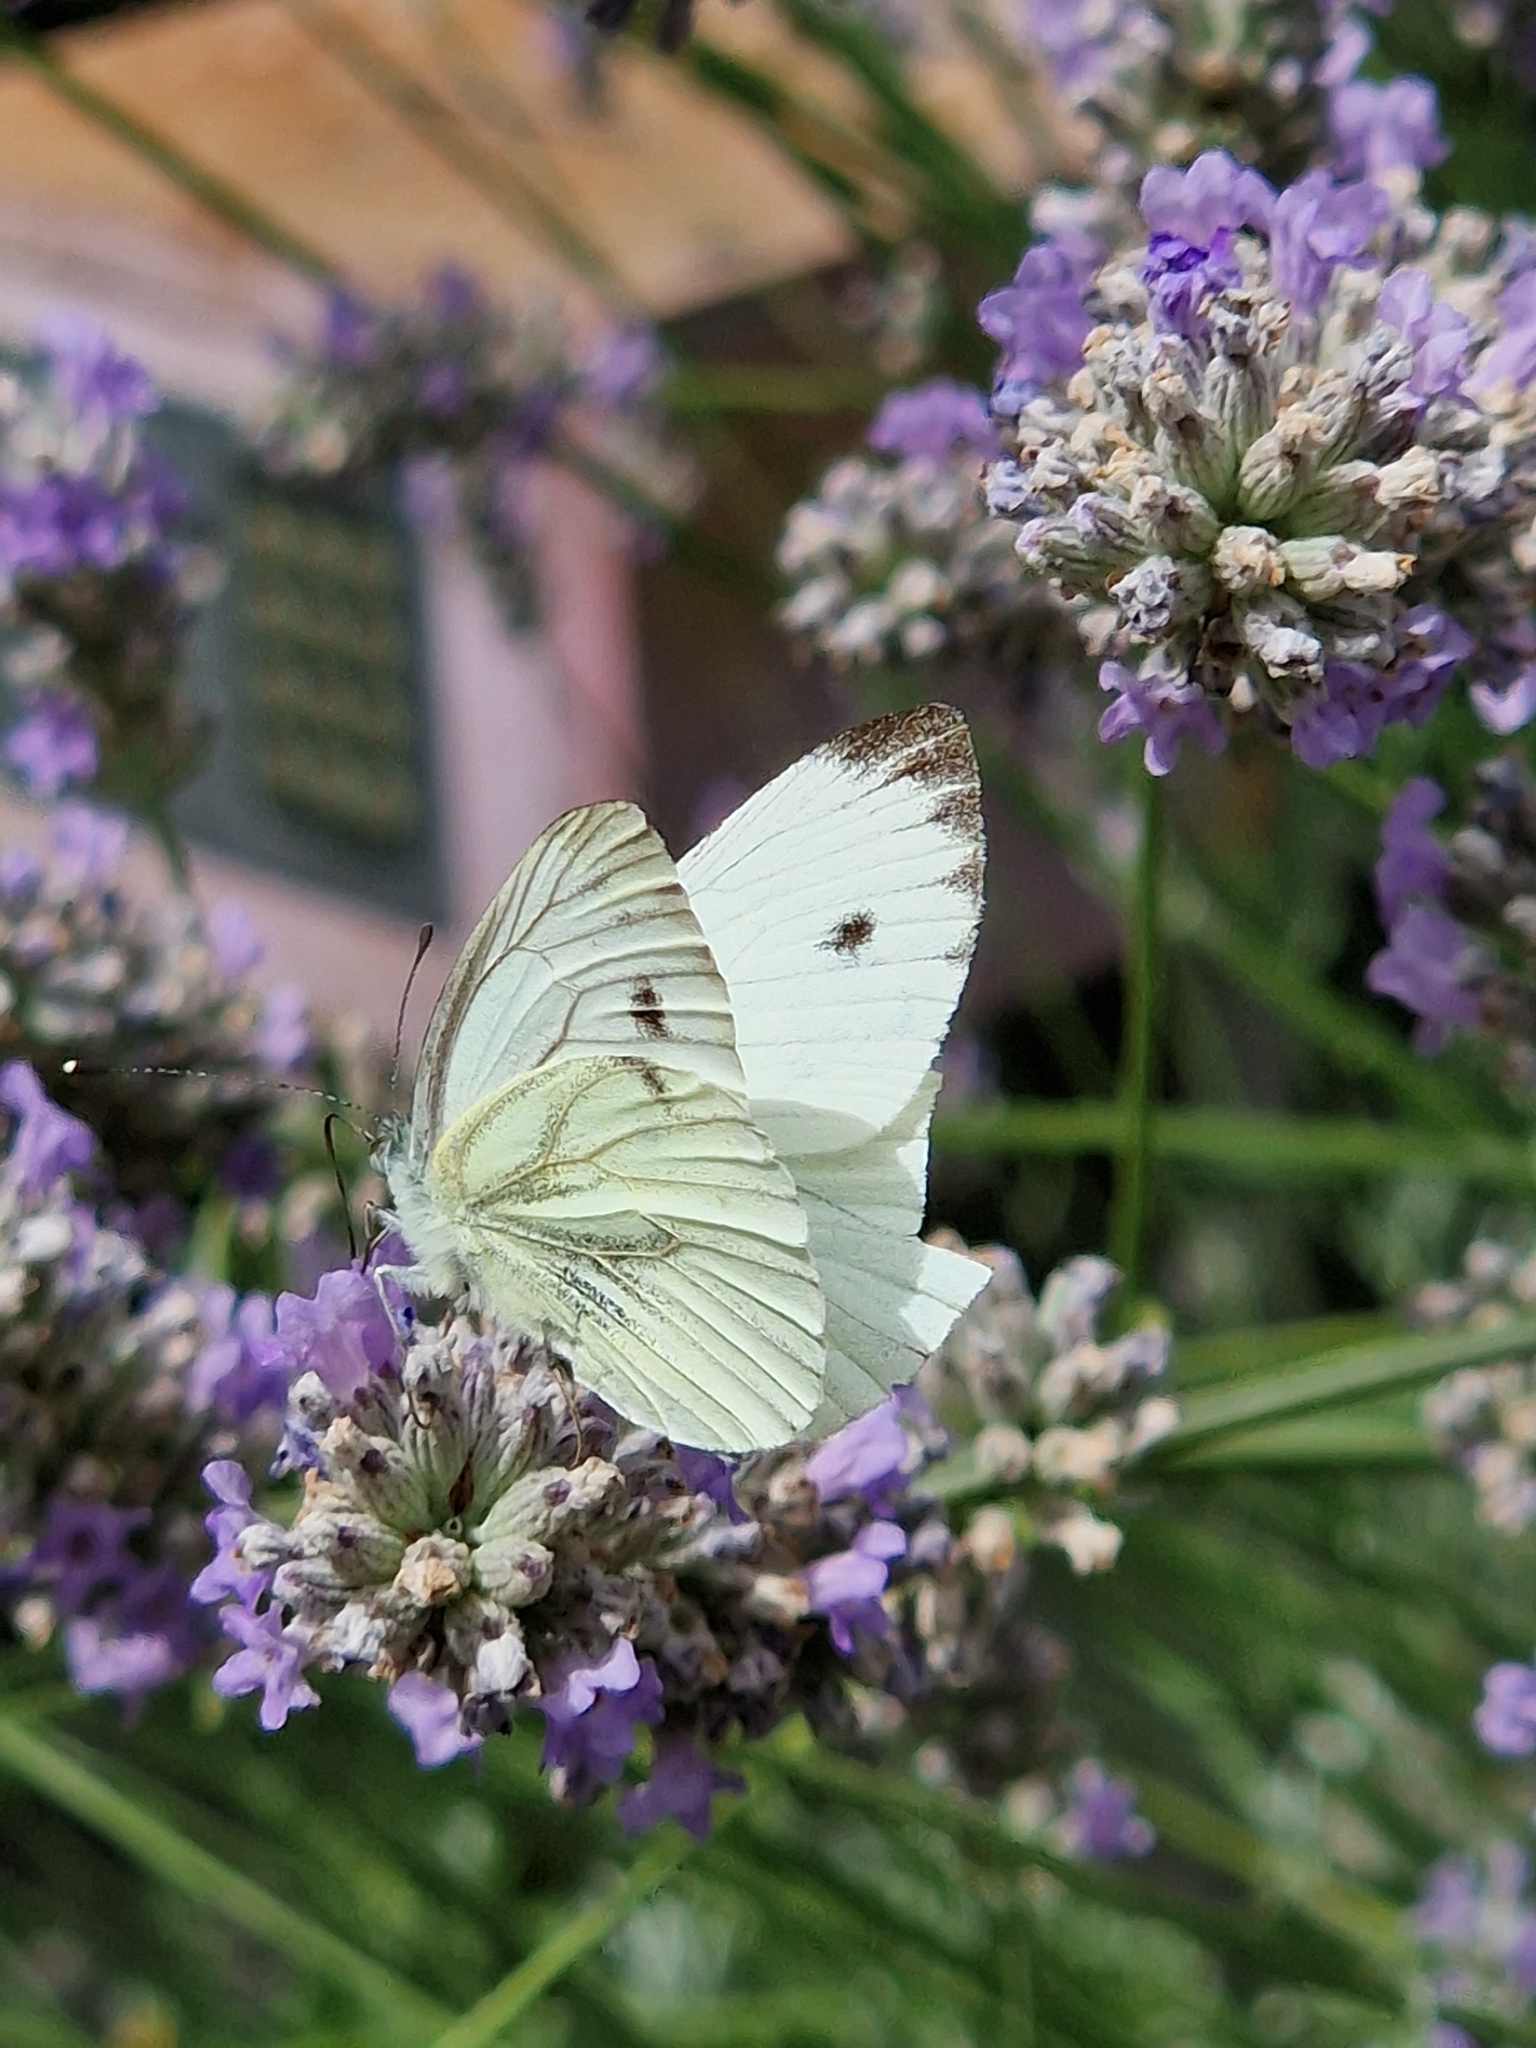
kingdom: Animalia
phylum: Arthropoda
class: Insecta
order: Lepidoptera
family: Pieridae
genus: Pieris
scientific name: Pieris napi
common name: Green-veined white
